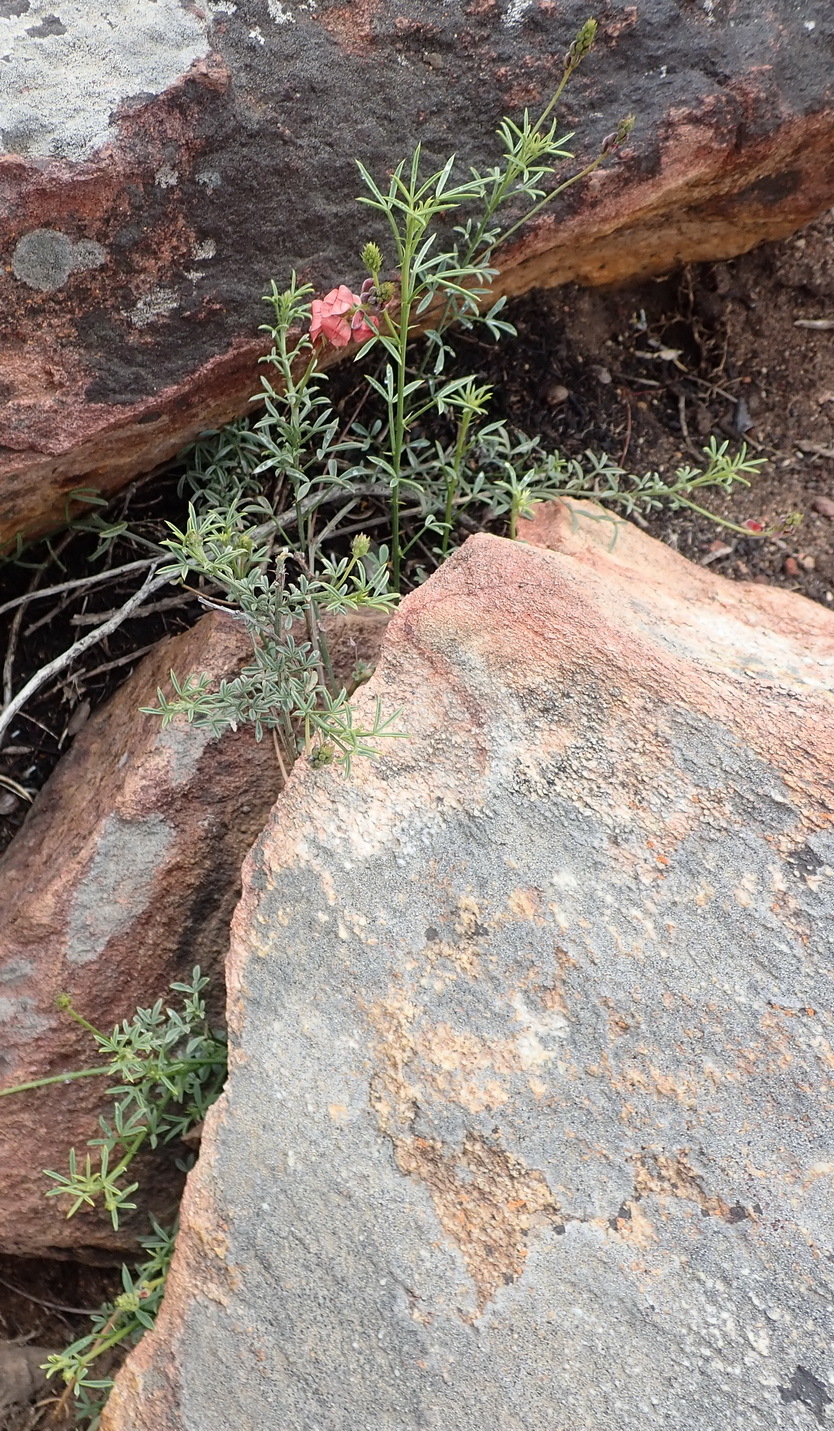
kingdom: Plantae
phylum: Tracheophyta
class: Magnoliopsida
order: Fabales
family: Fabaceae
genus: Indigofera
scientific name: Indigofera heterophylla
